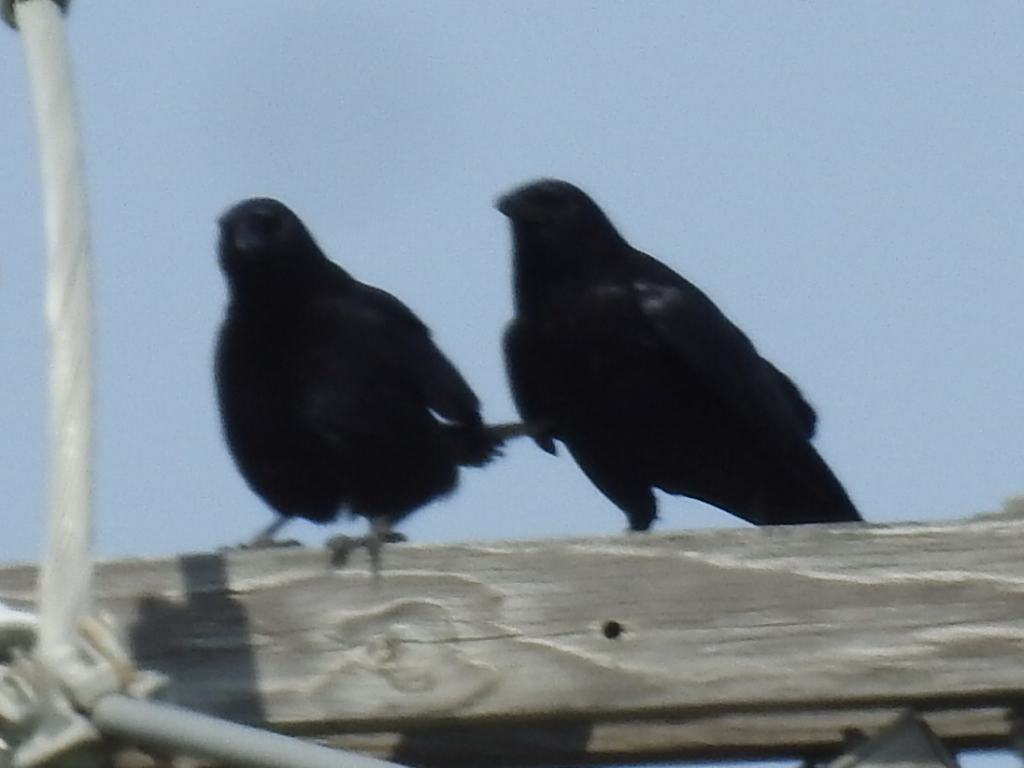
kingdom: Animalia
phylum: Chordata
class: Aves
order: Passeriformes
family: Corvidae
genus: Corvus
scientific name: Corvus brachyrhynchos
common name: American crow
